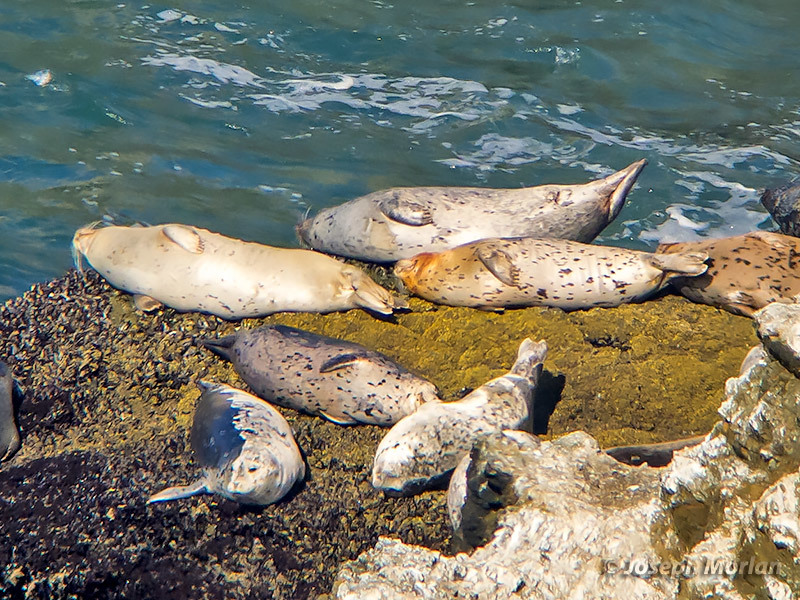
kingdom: Animalia
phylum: Chordata
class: Mammalia
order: Carnivora
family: Phocidae
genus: Phoca
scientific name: Phoca vitulina
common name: Harbor seal
